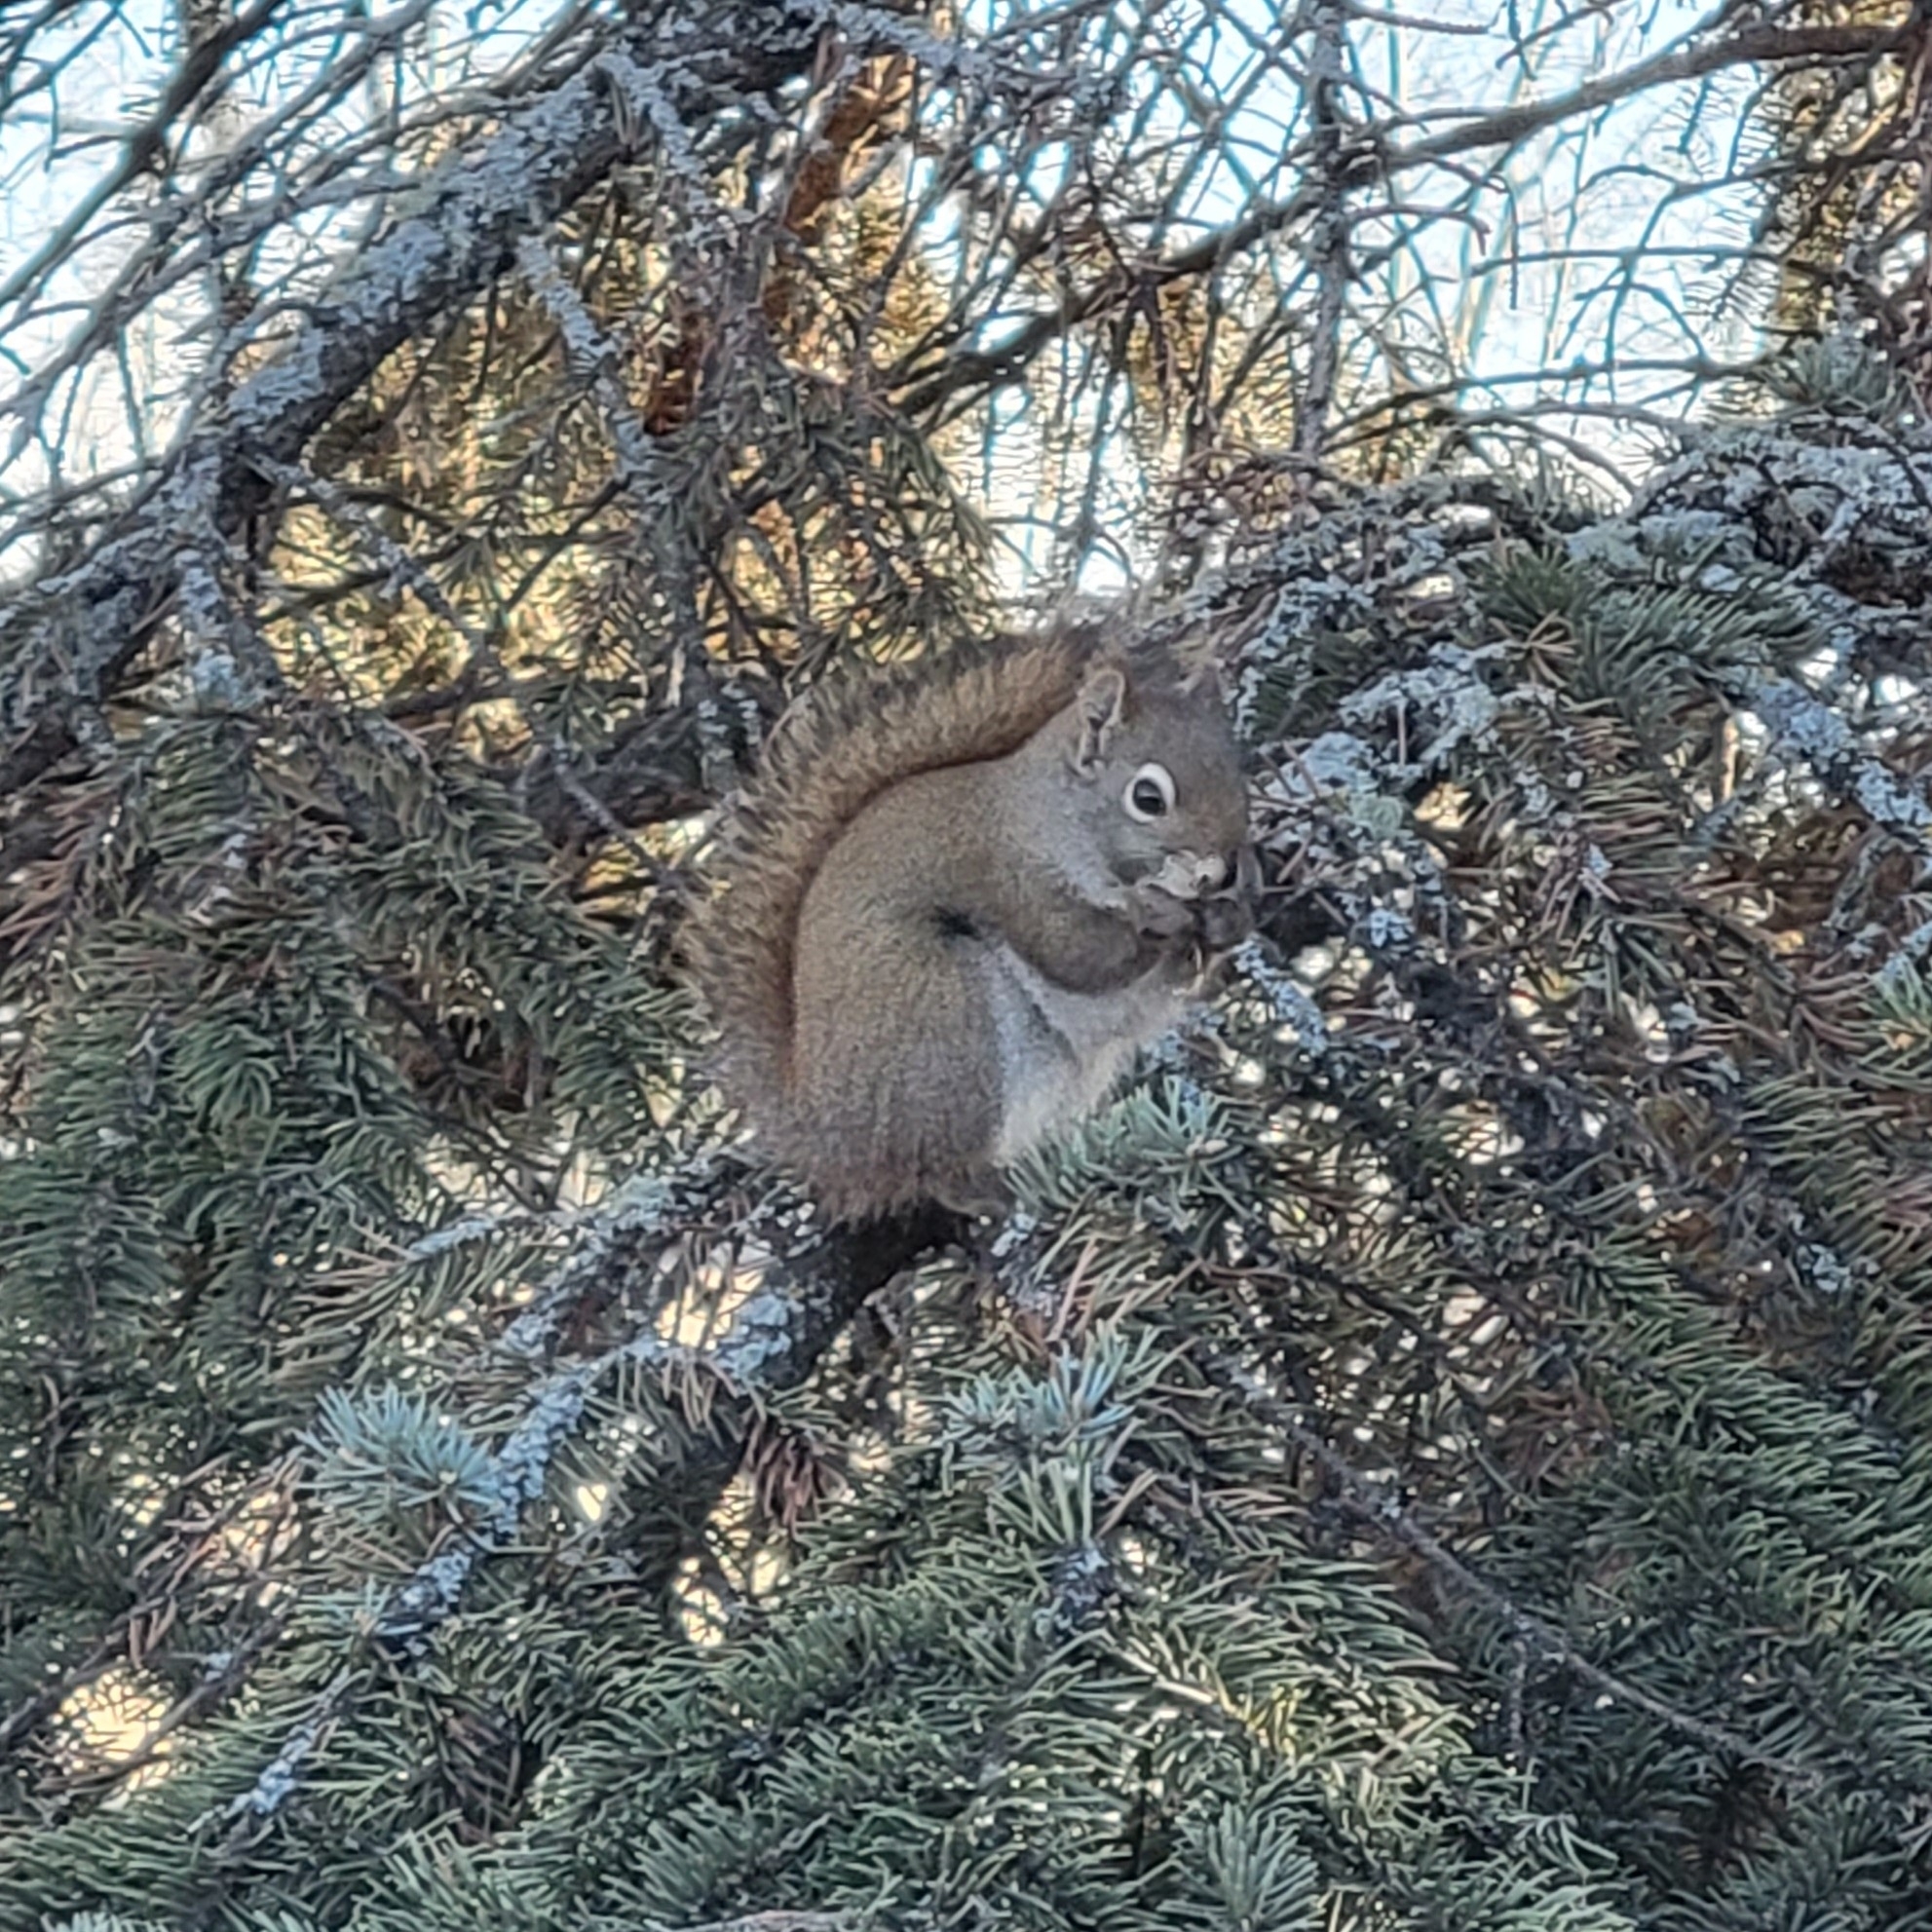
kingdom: Animalia
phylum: Chordata
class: Mammalia
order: Rodentia
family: Sciuridae
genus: Tamiasciurus
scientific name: Tamiasciurus hudsonicus
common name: Red squirrel
